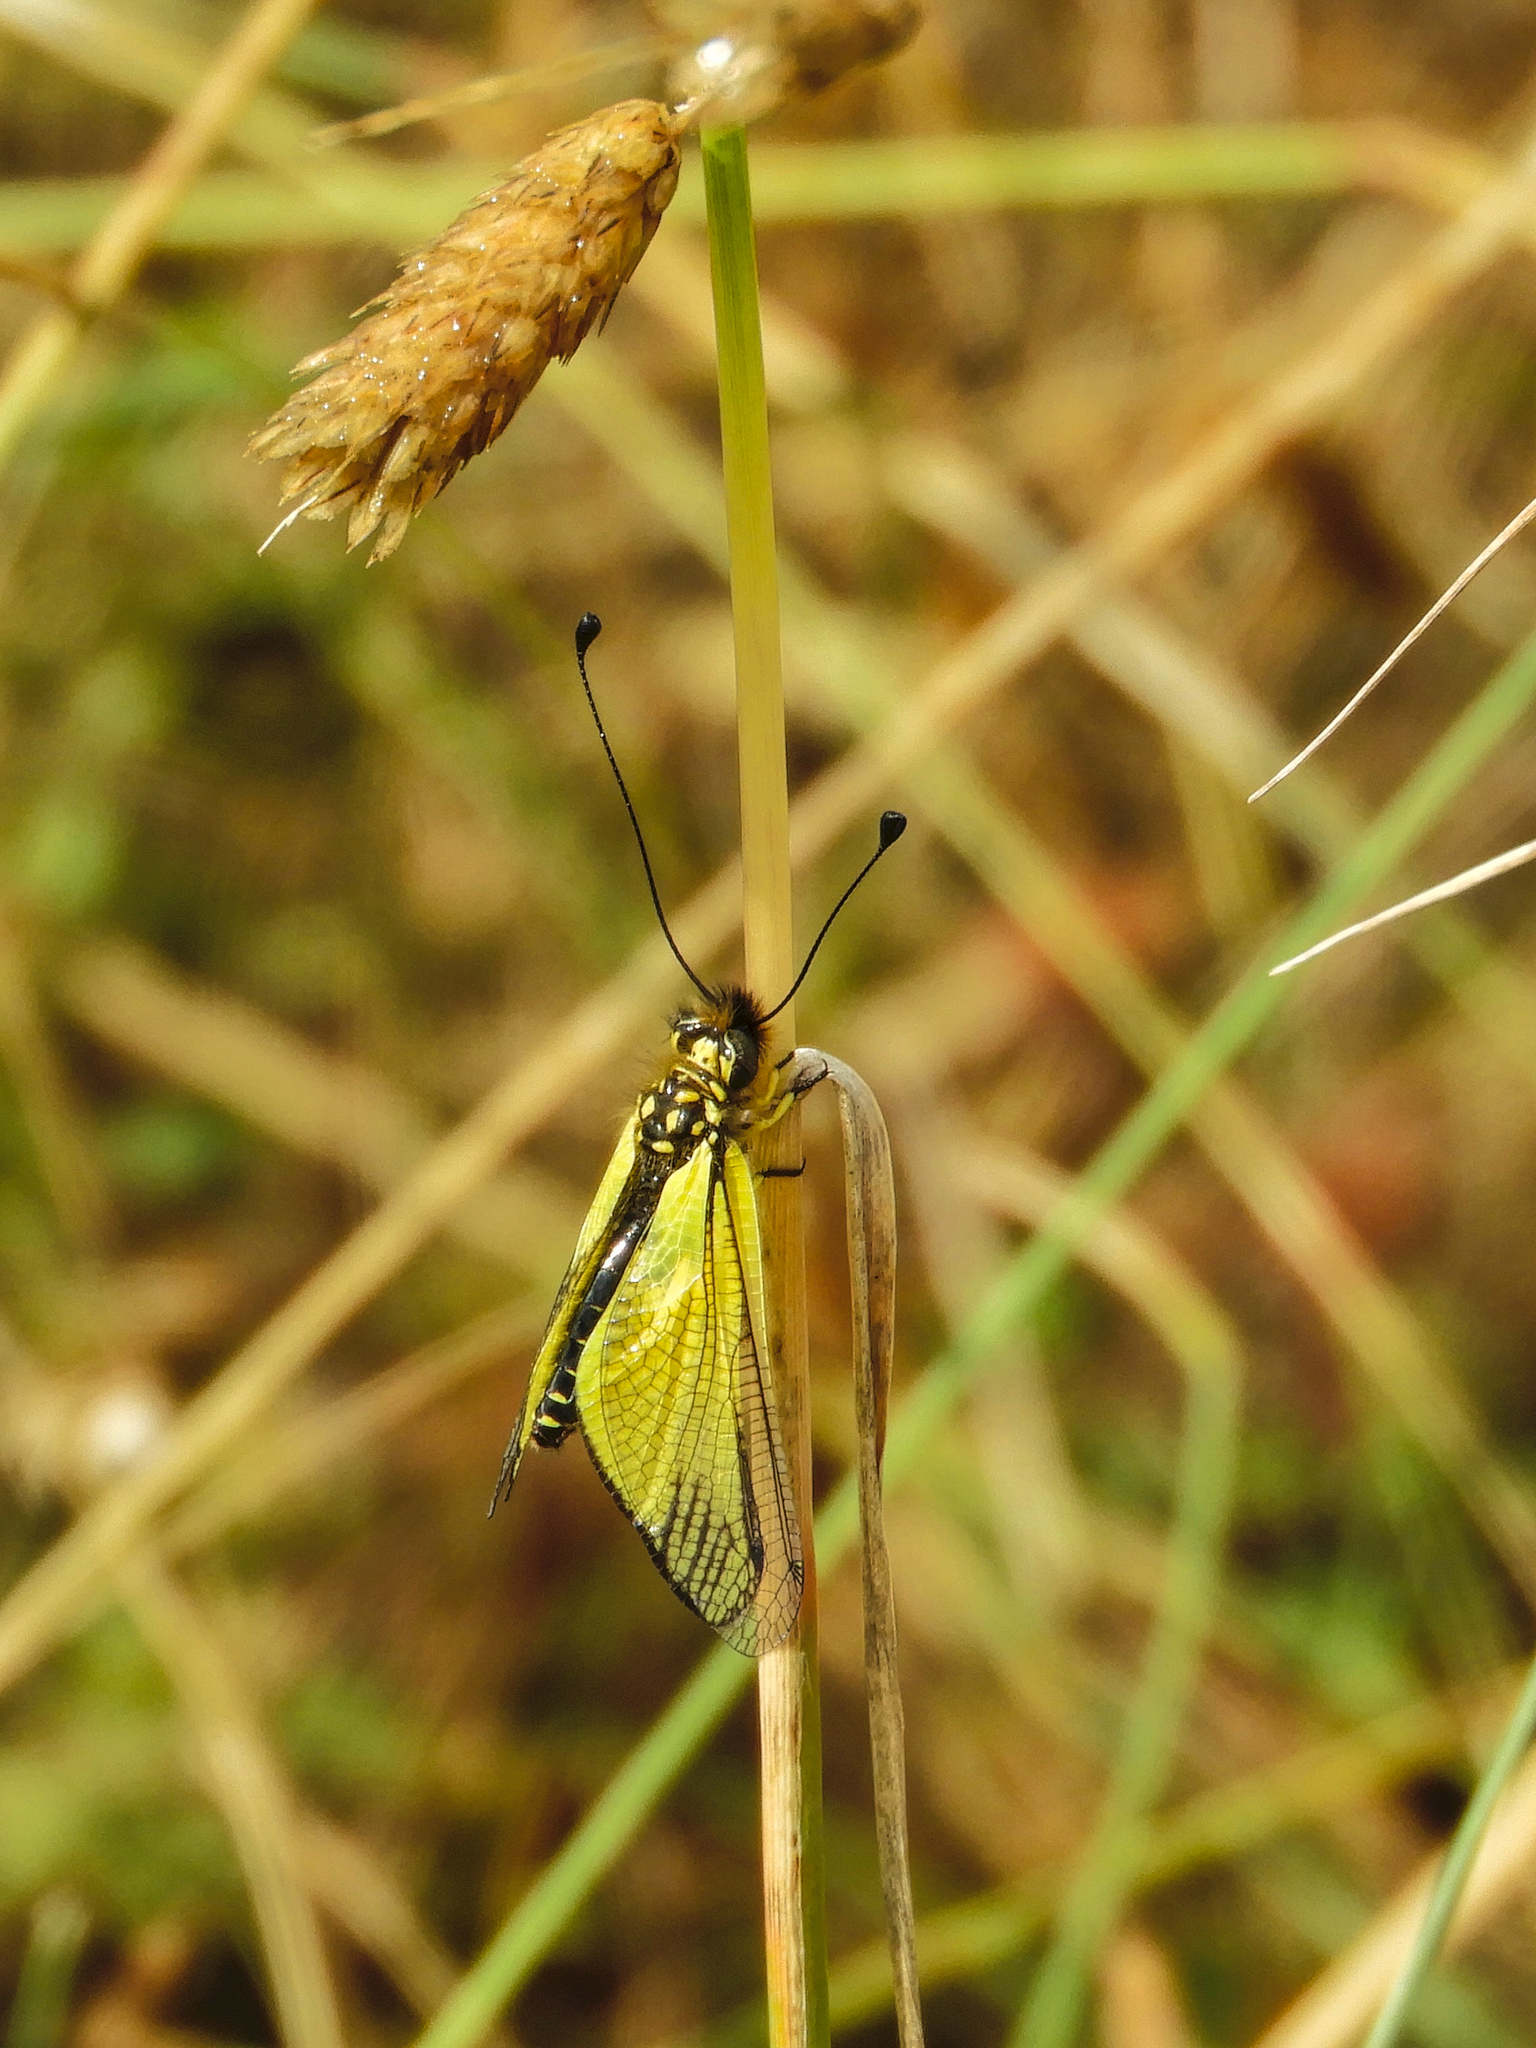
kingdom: Animalia
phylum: Arthropoda
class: Insecta
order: Neuroptera
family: Ascalaphidae
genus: Libelloides
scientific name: Libelloides latinus
